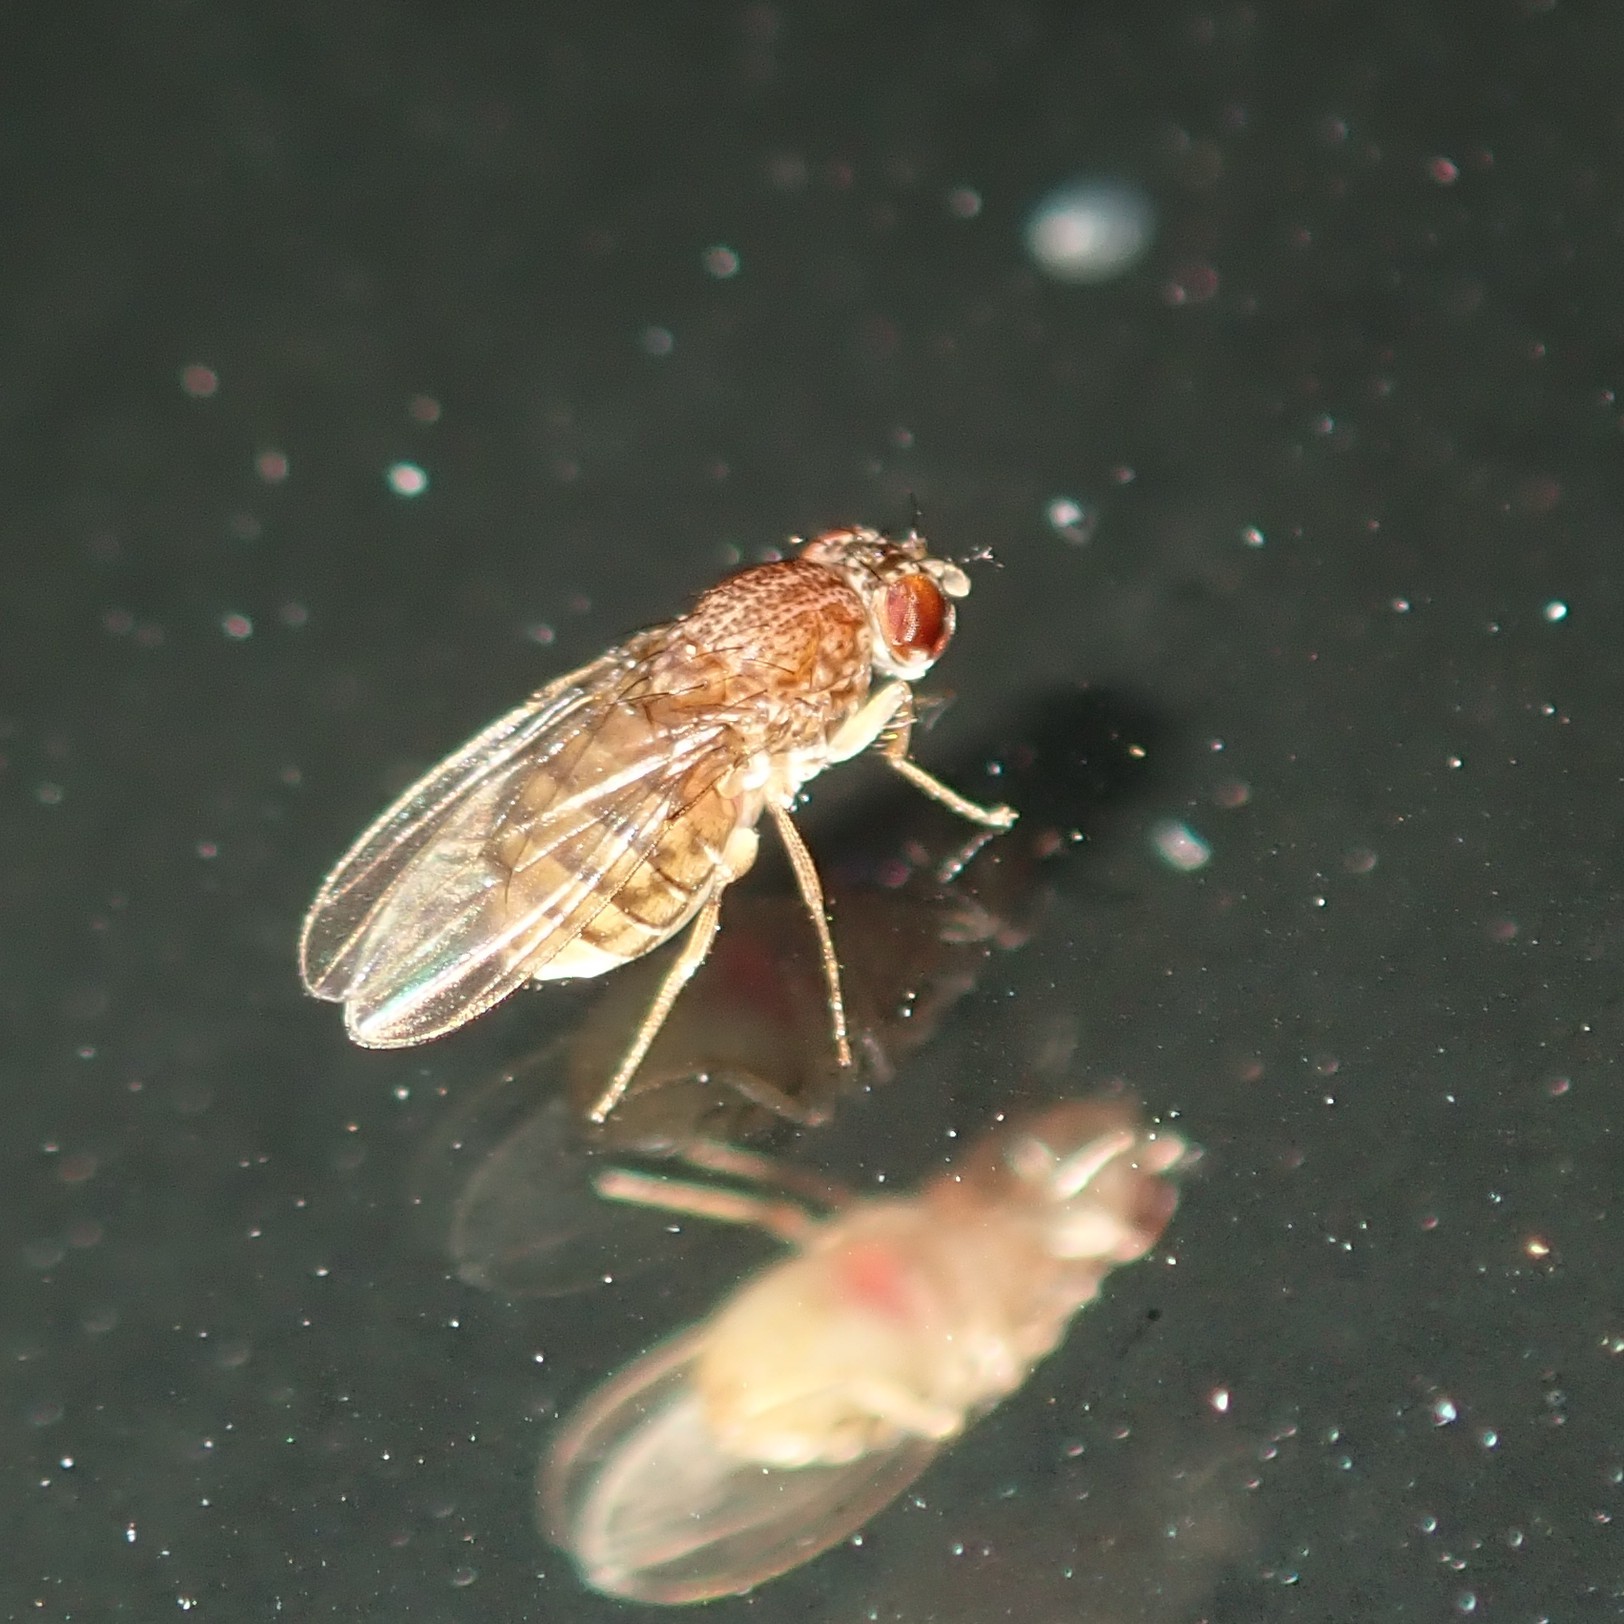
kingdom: Animalia
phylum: Arthropoda
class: Insecta
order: Diptera
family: Drosophilidae
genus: Drosophila
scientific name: Drosophila repleta
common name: Pomace fly
